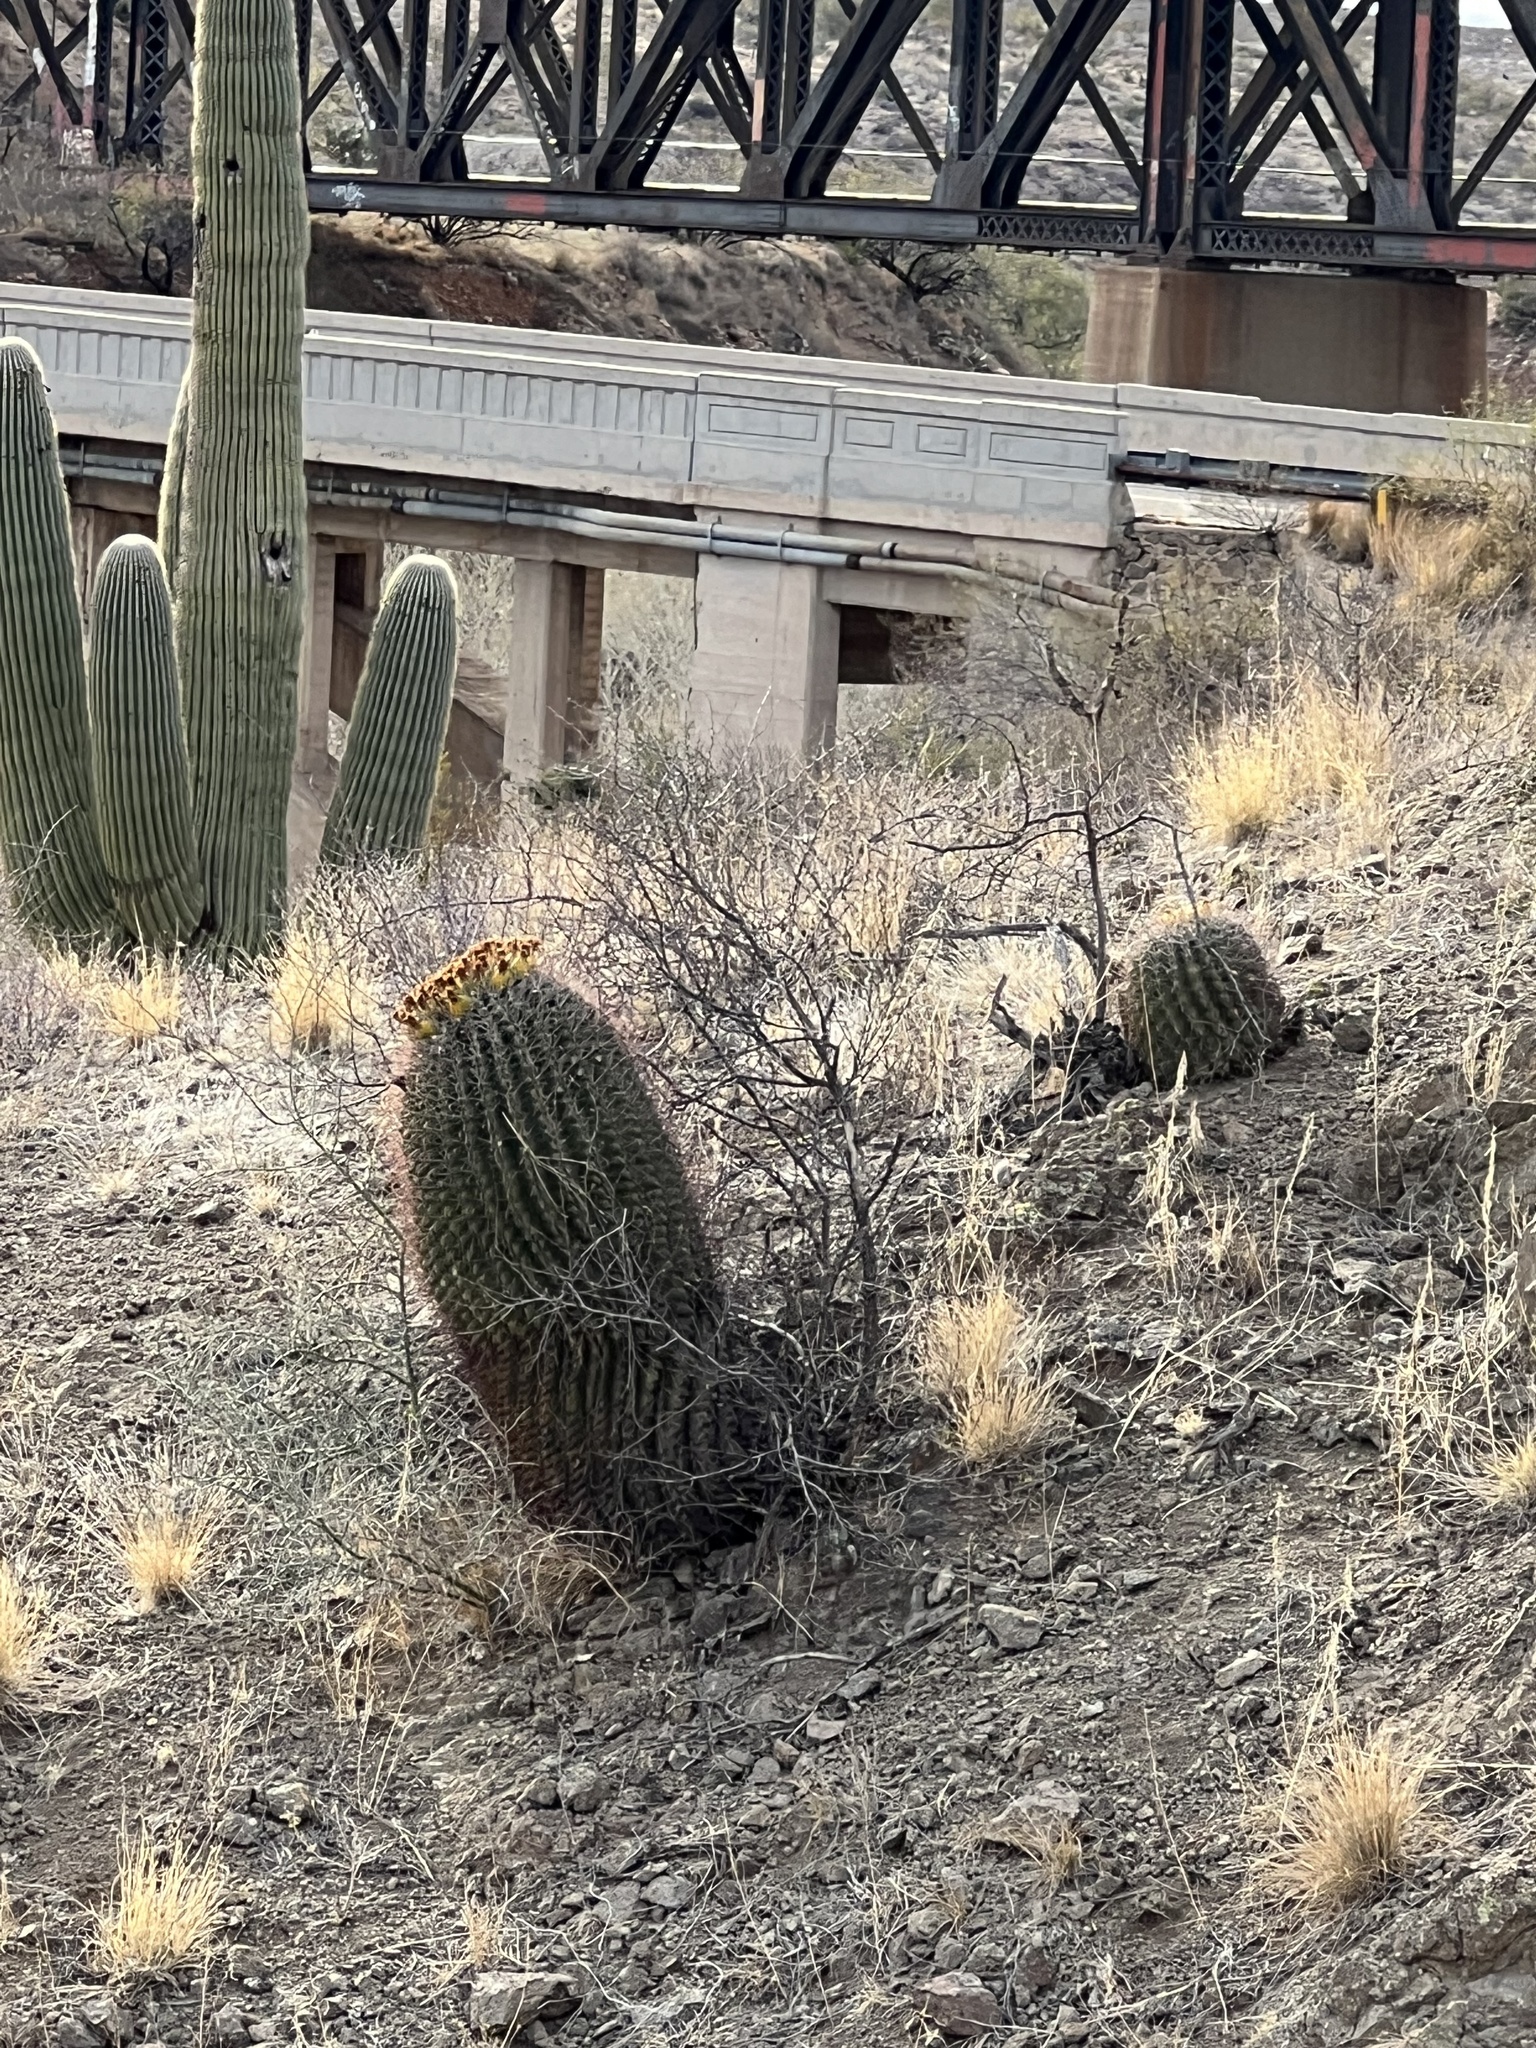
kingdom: Plantae
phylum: Tracheophyta
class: Magnoliopsida
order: Caryophyllales
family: Cactaceae
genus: Ferocactus
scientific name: Ferocactus wislizeni
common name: Candy barrel cactus
